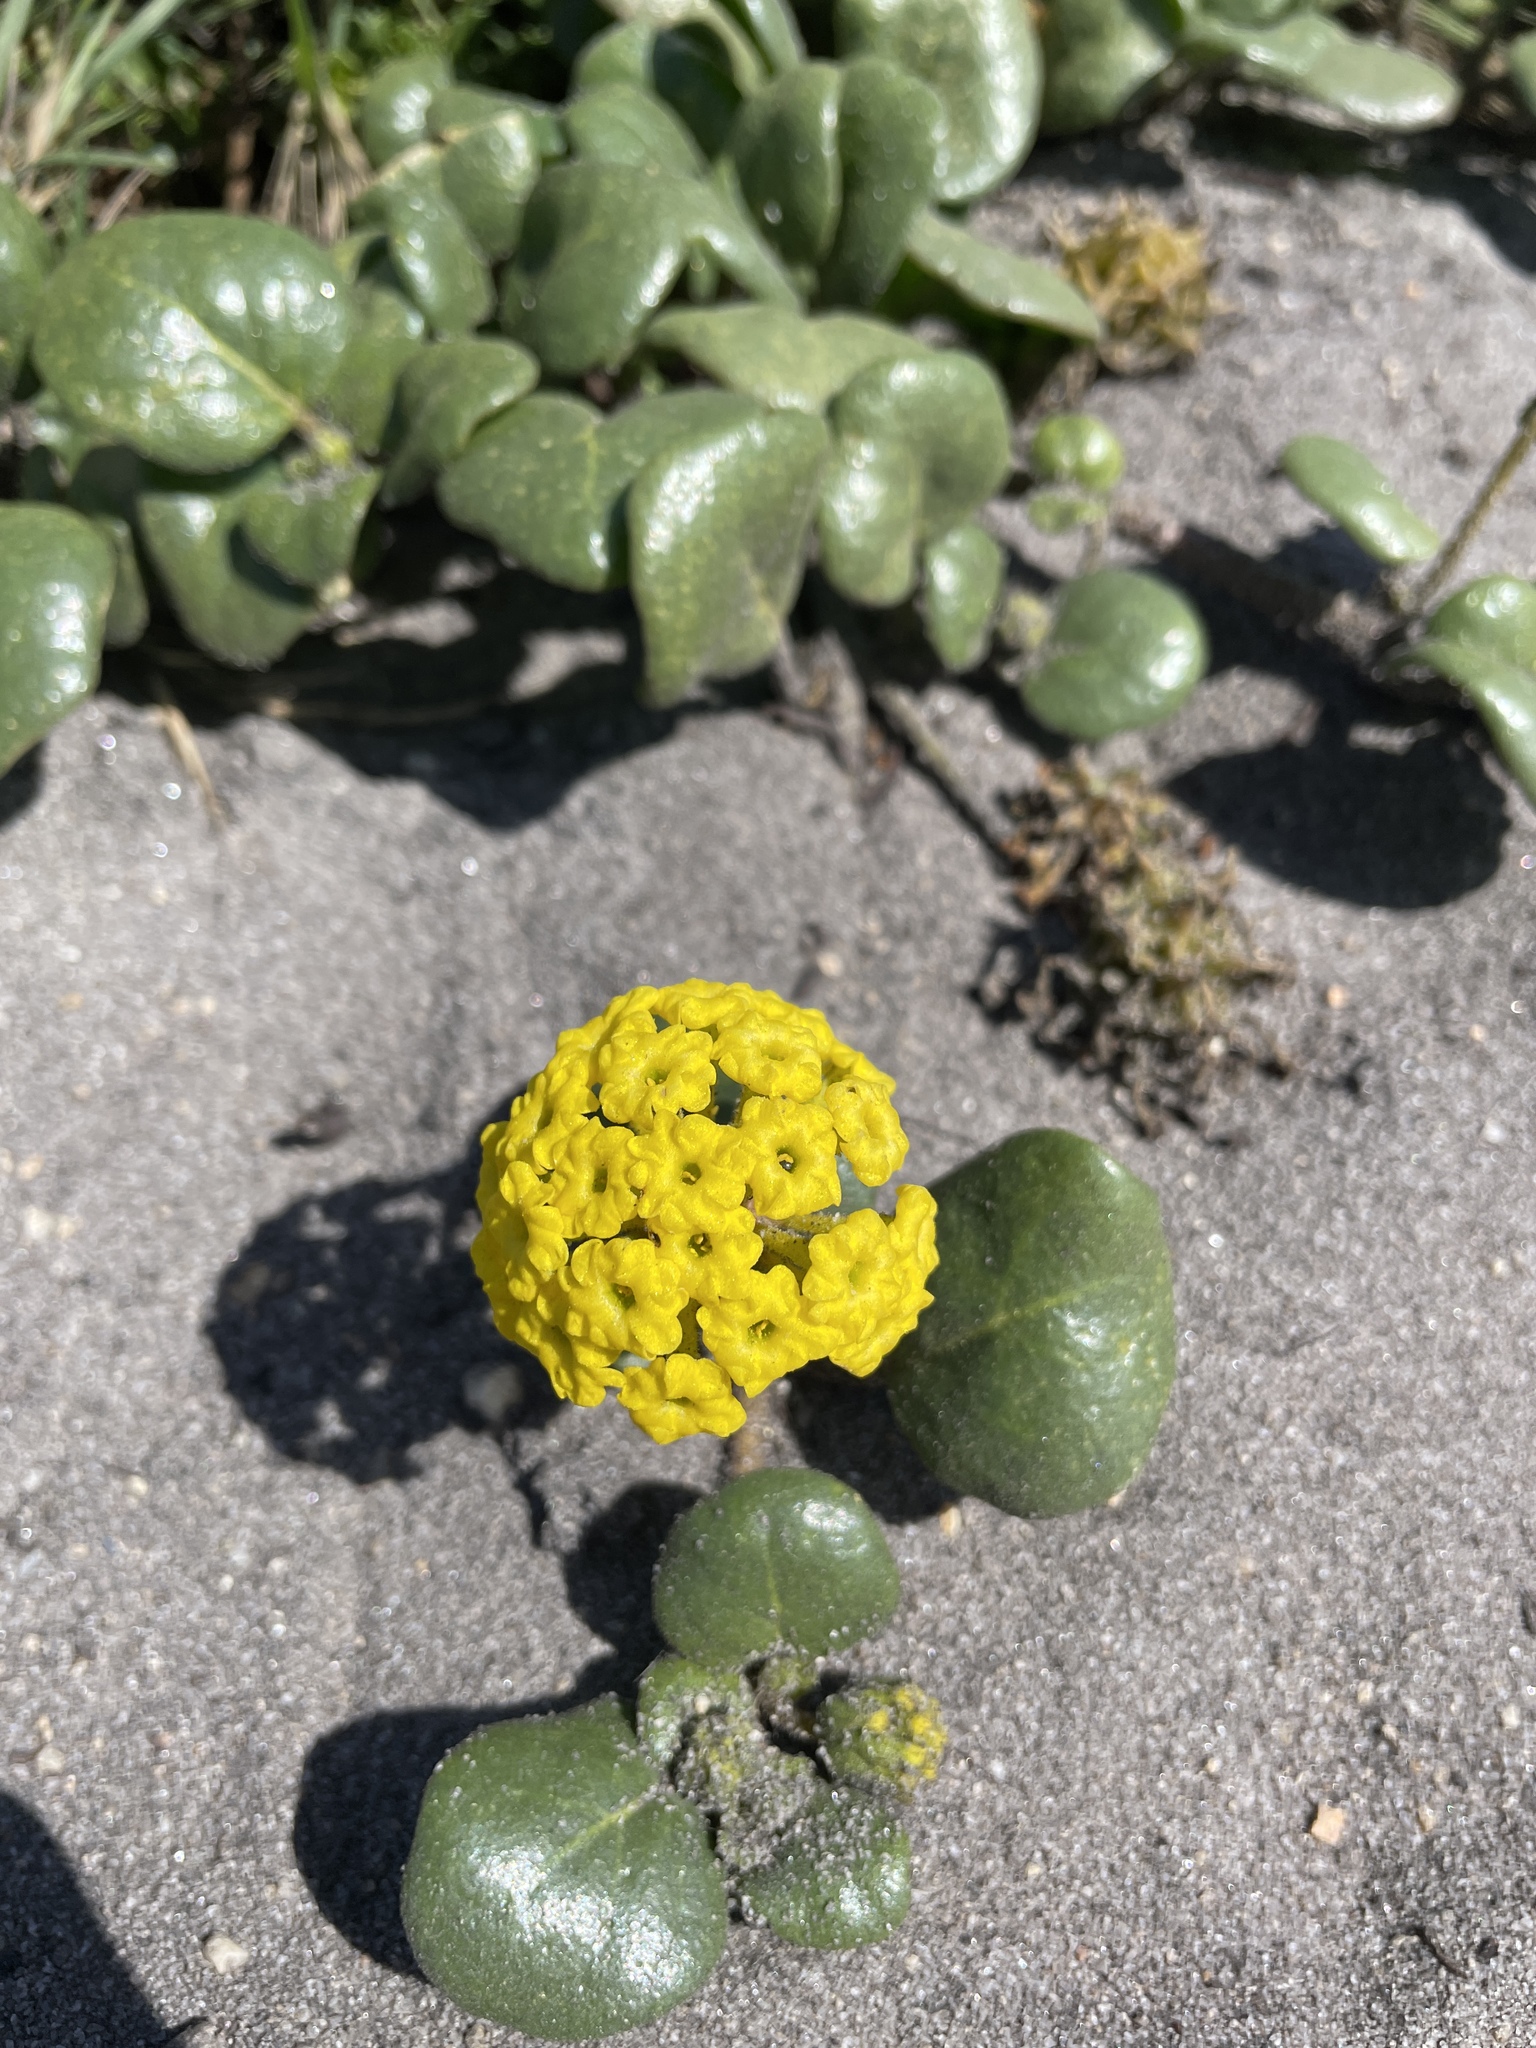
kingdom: Plantae
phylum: Tracheophyta
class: Magnoliopsida
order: Caryophyllales
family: Nyctaginaceae
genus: Abronia
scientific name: Abronia latifolia
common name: Yellow sand-verbena
